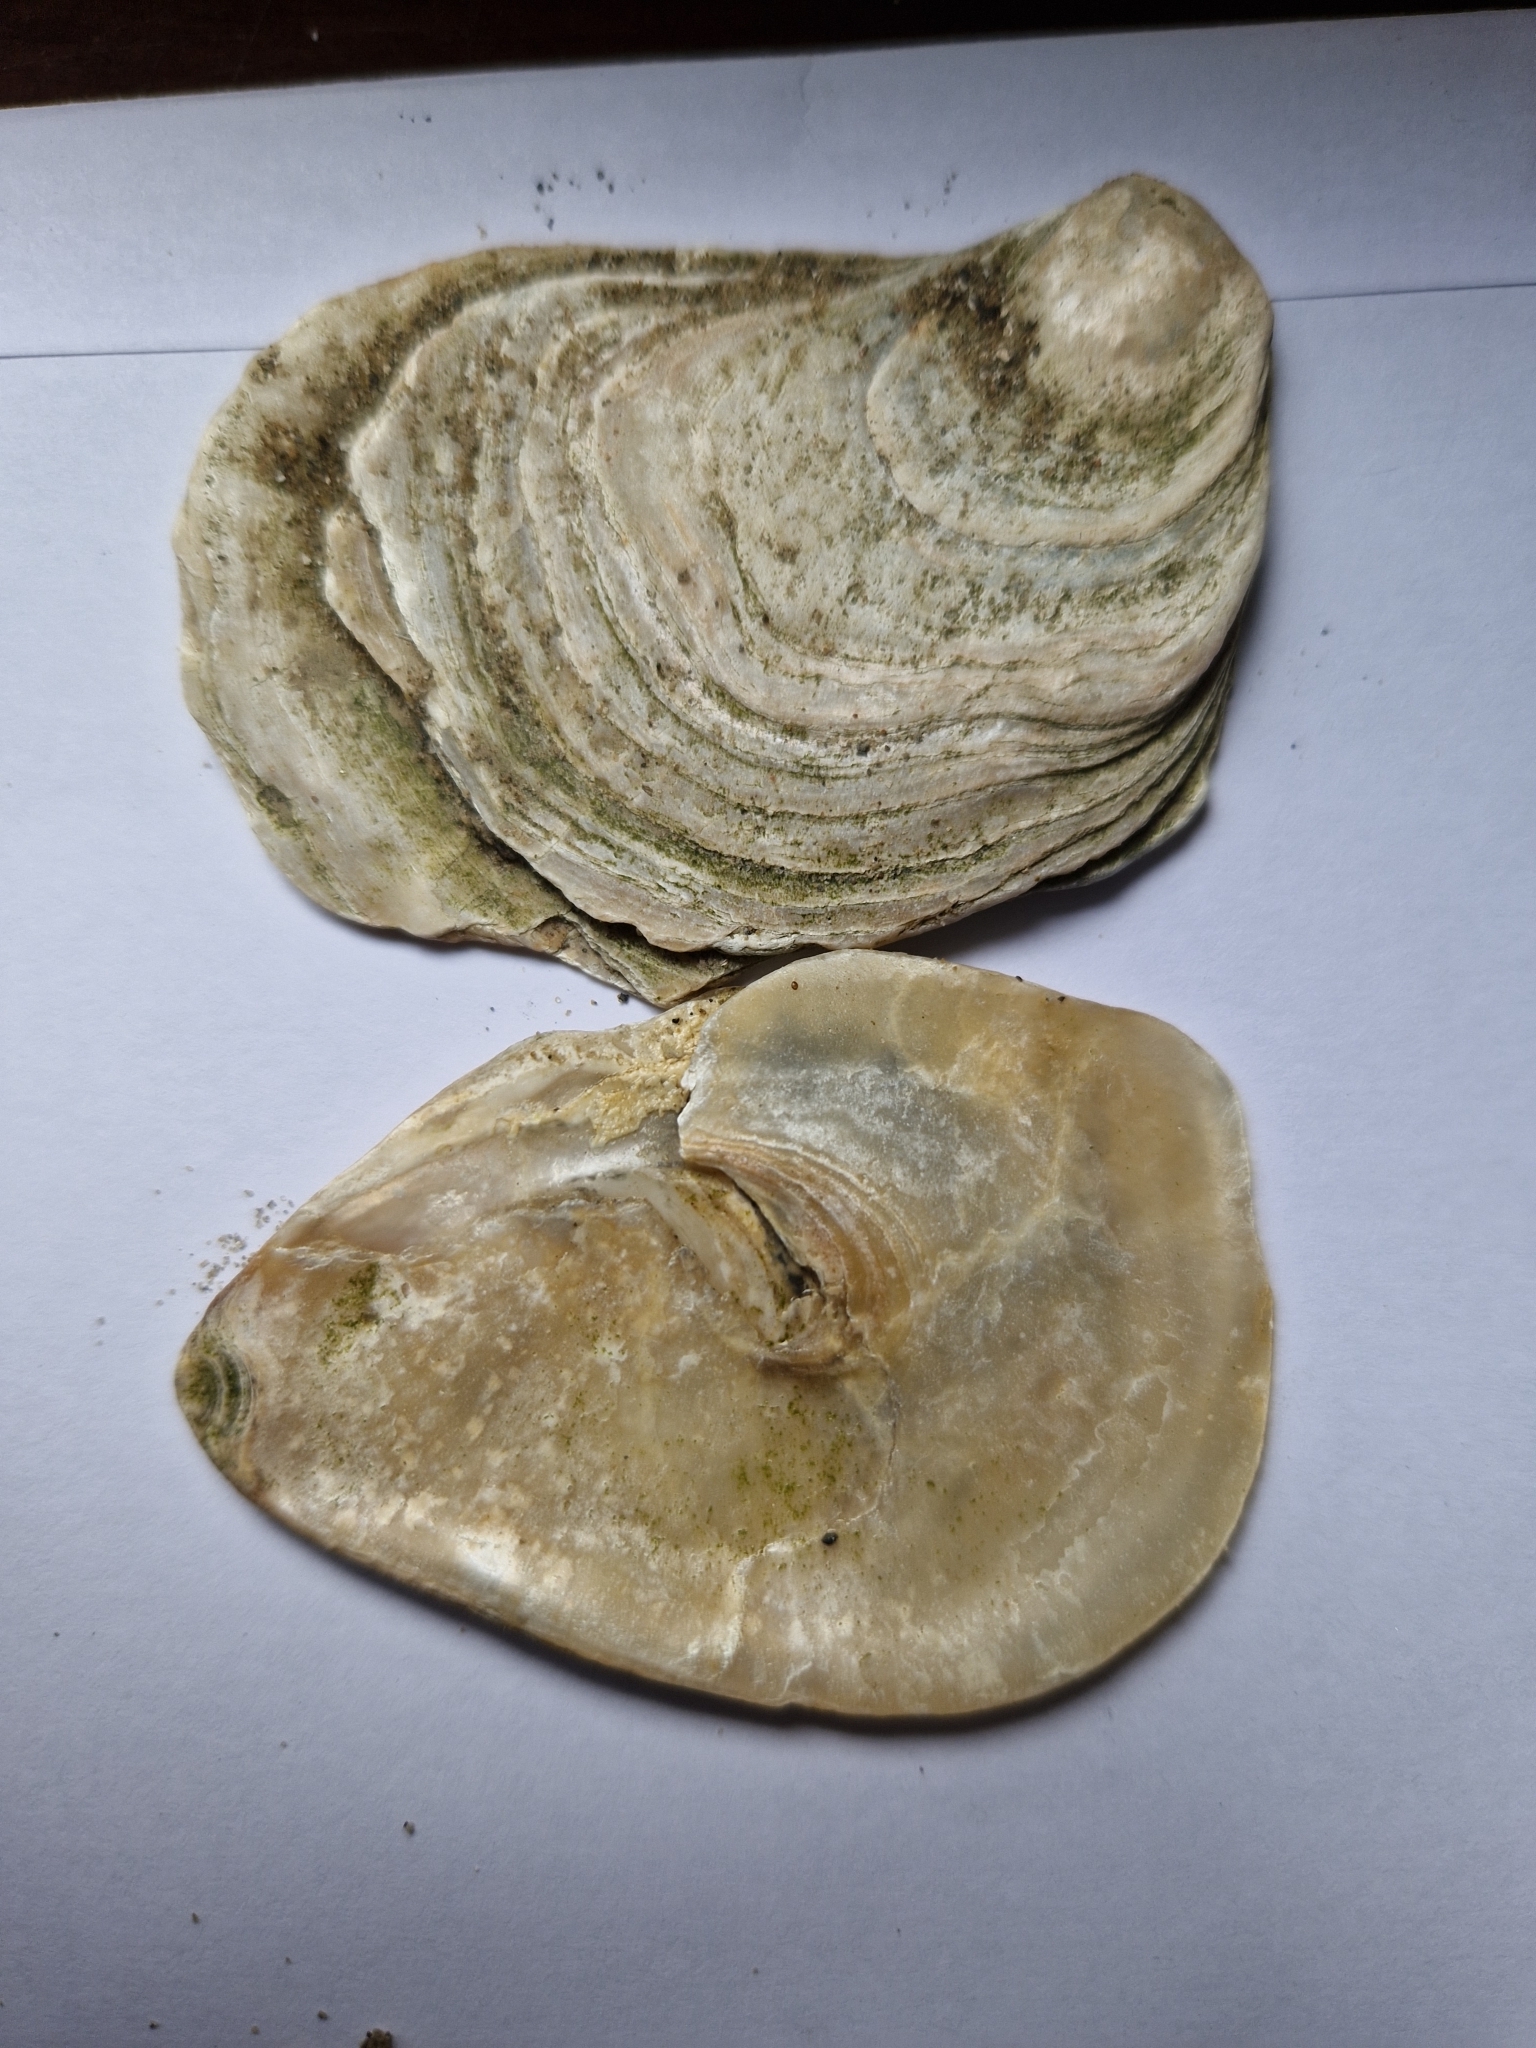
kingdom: Animalia
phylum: Mollusca
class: Bivalvia
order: Ostreida
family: Ostreidae
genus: Ostrea
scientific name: Ostrea edulis
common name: Flat oyster
